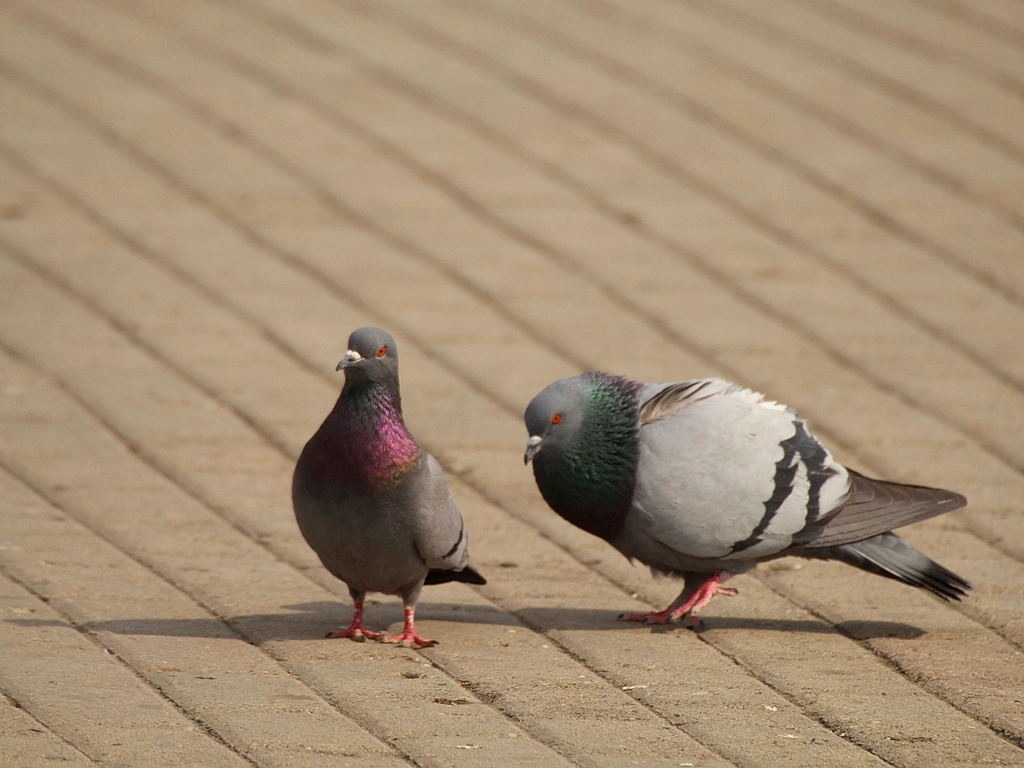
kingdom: Animalia
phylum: Chordata
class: Aves
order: Columbiformes
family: Columbidae
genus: Columba
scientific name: Columba livia
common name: Rock pigeon
